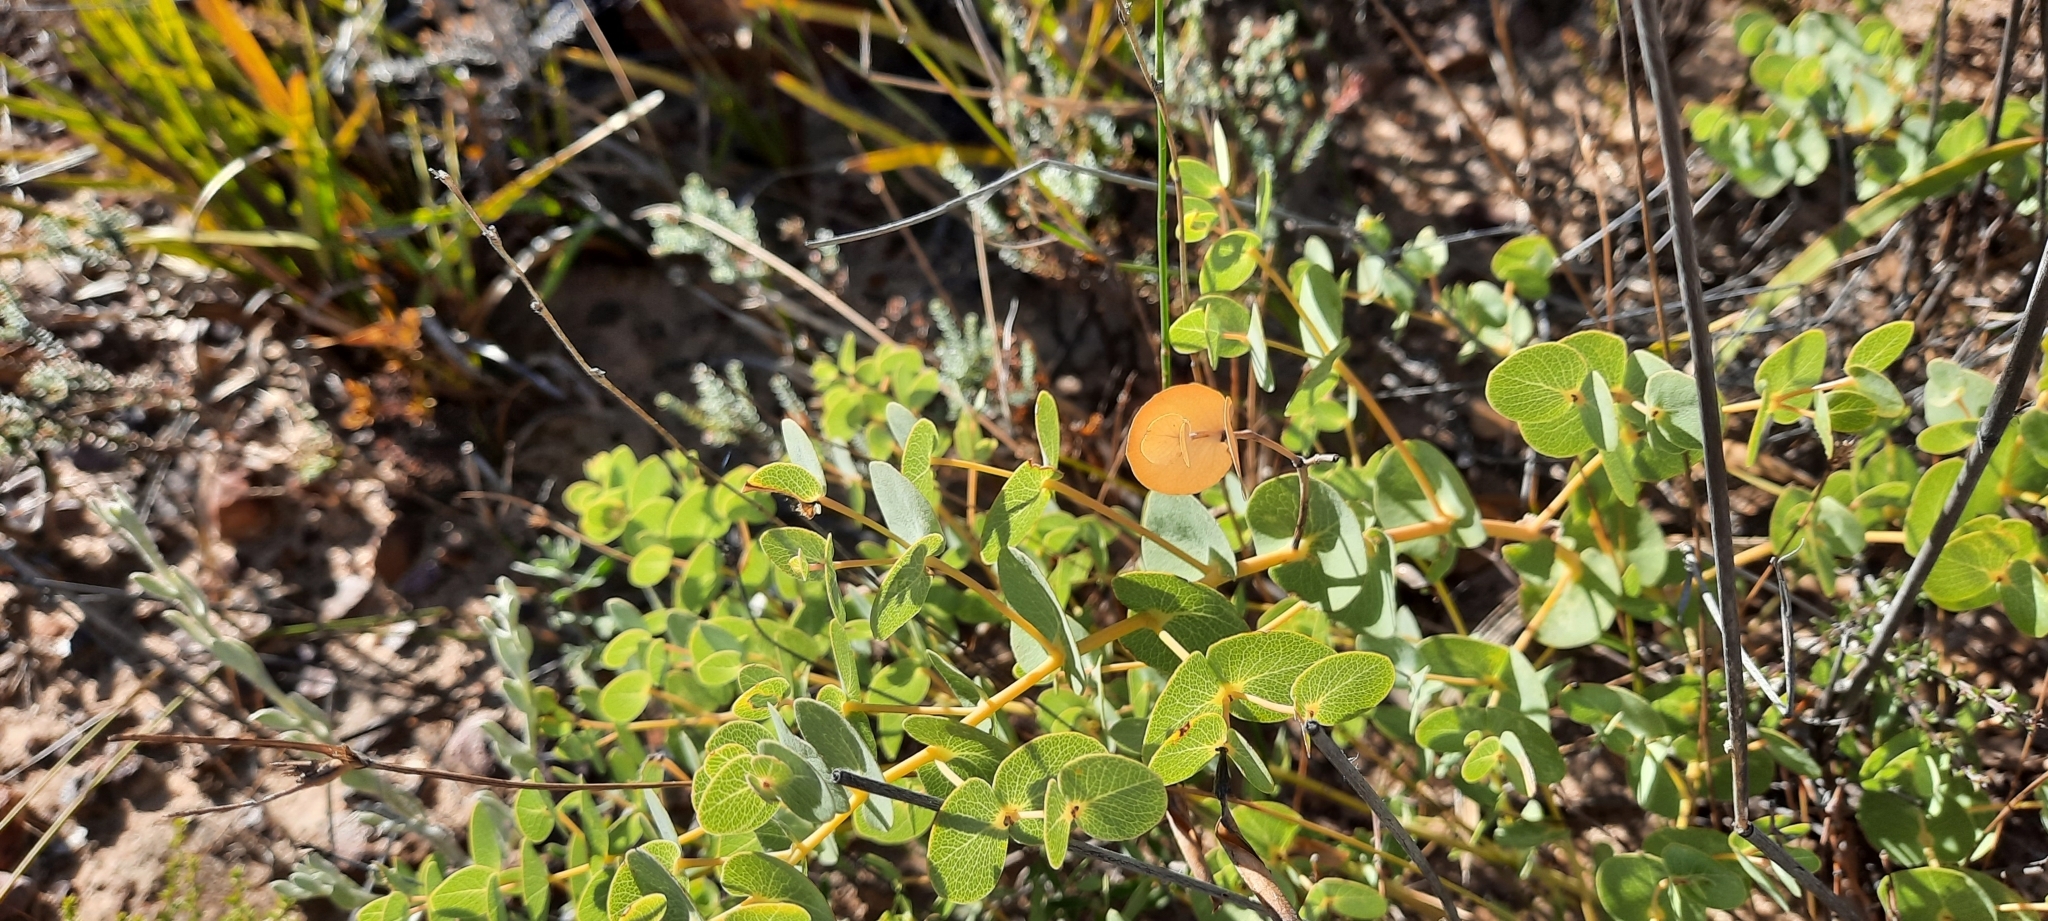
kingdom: Plantae
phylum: Tracheophyta
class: Magnoliopsida
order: Fabales
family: Fabaceae
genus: Rafnia
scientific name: Rafnia acuminata
